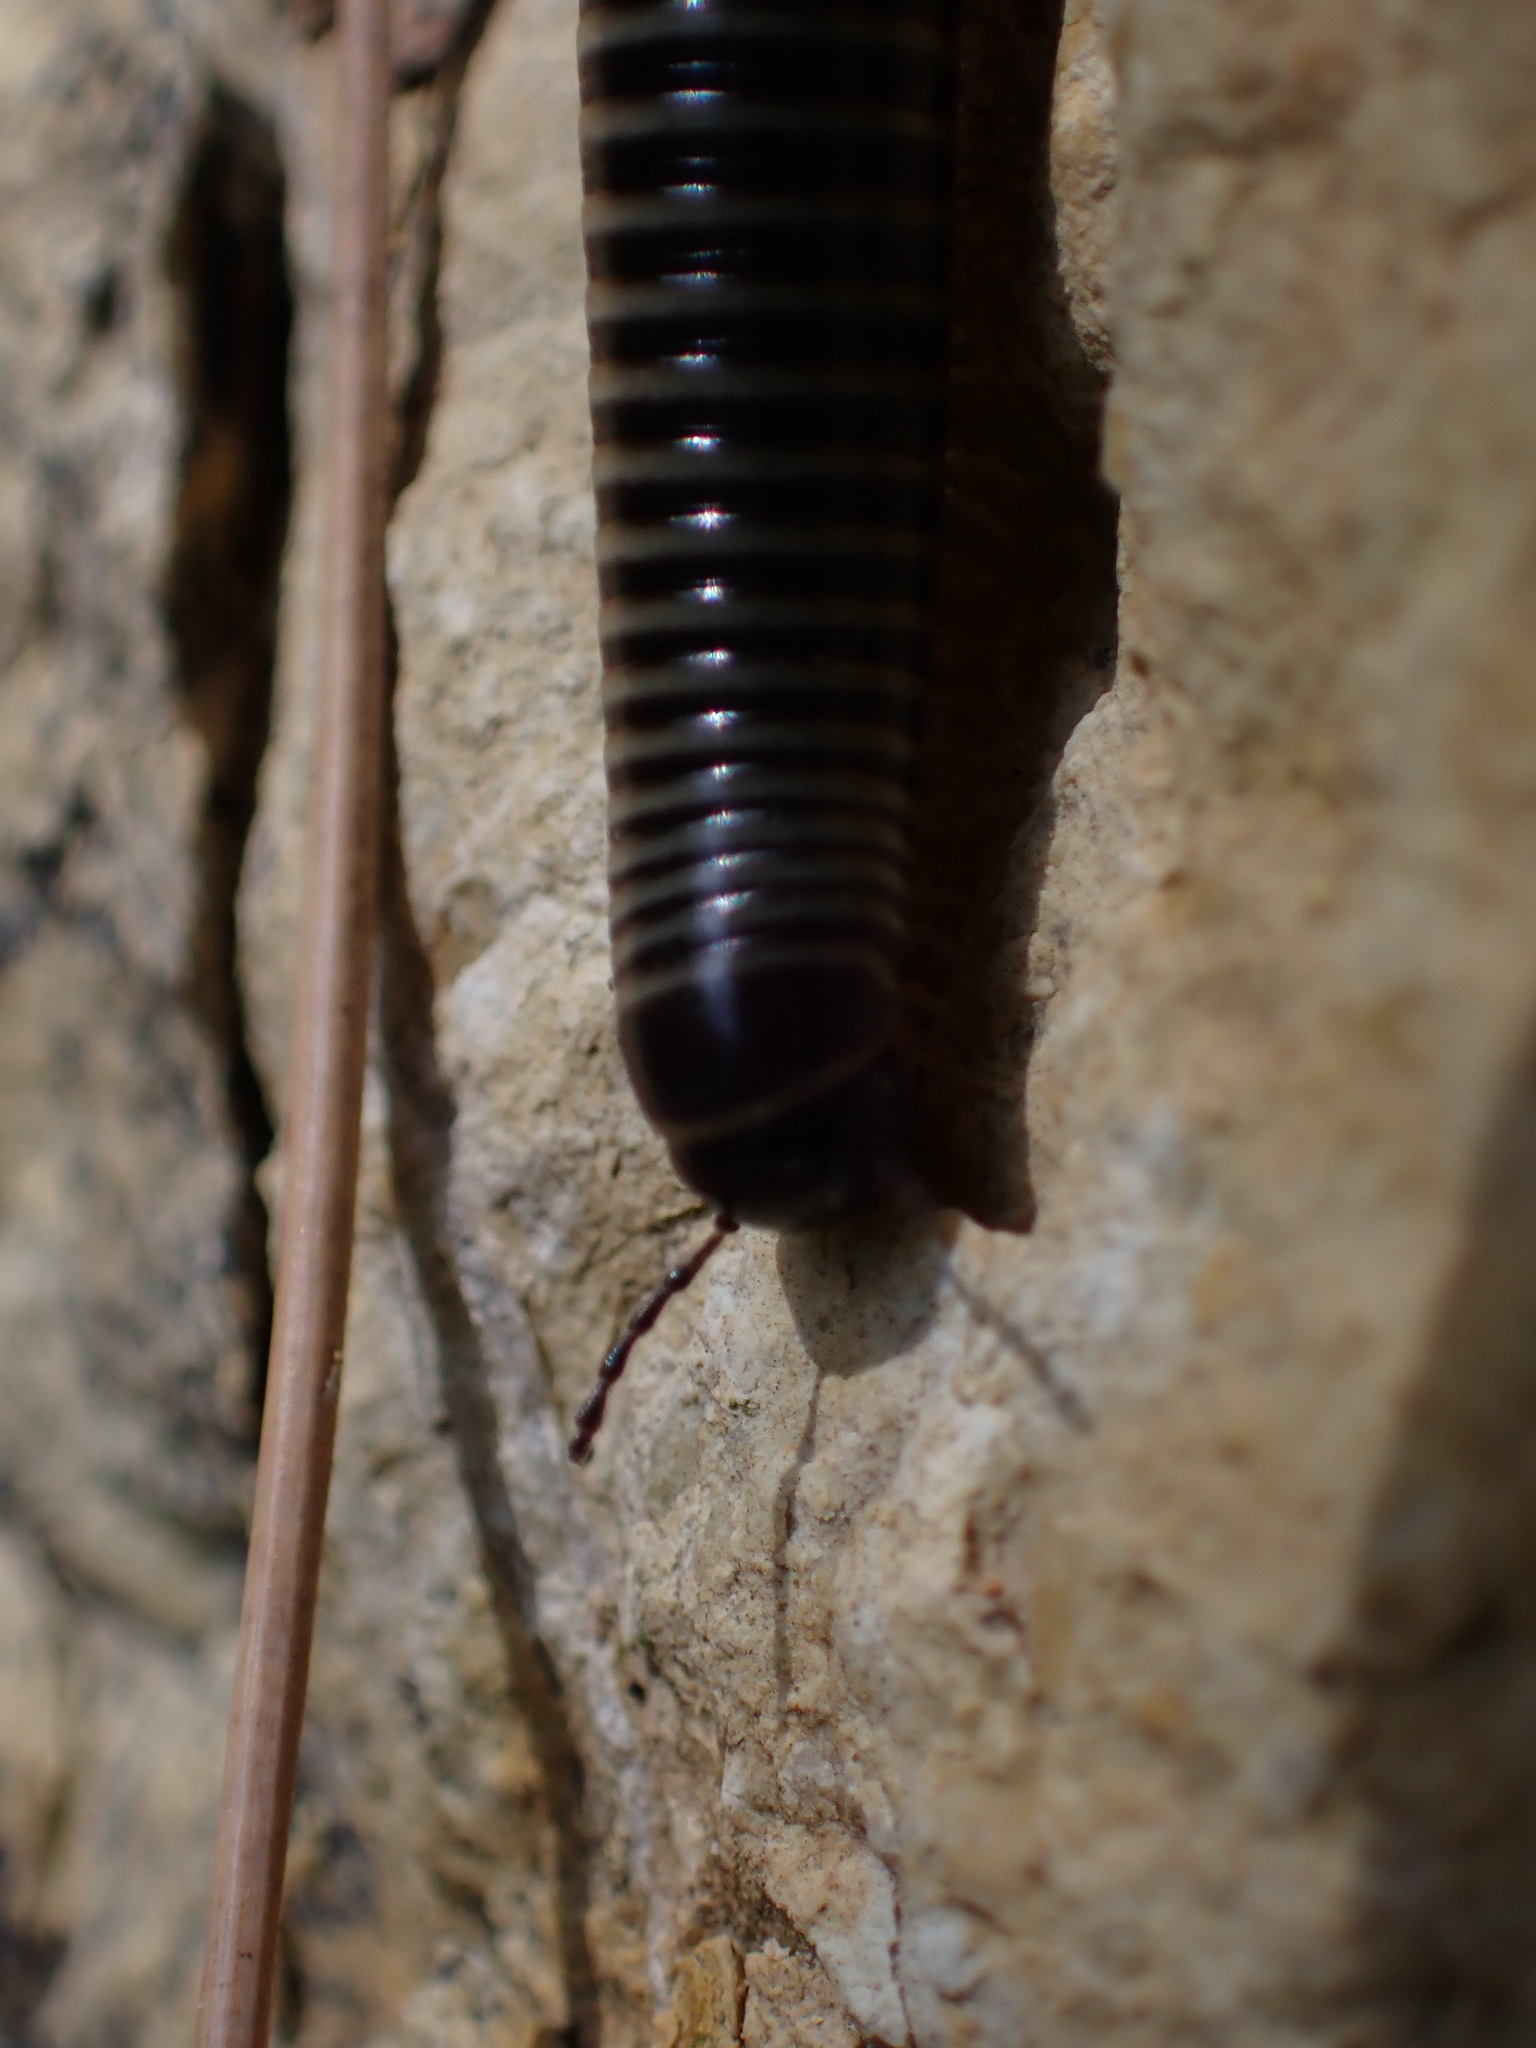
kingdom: Animalia
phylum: Arthropoda
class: Diplopoda
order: Julida
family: Julidae
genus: Ommatoiulus
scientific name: Ommatoiulus sabulosus
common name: Striped millipede
